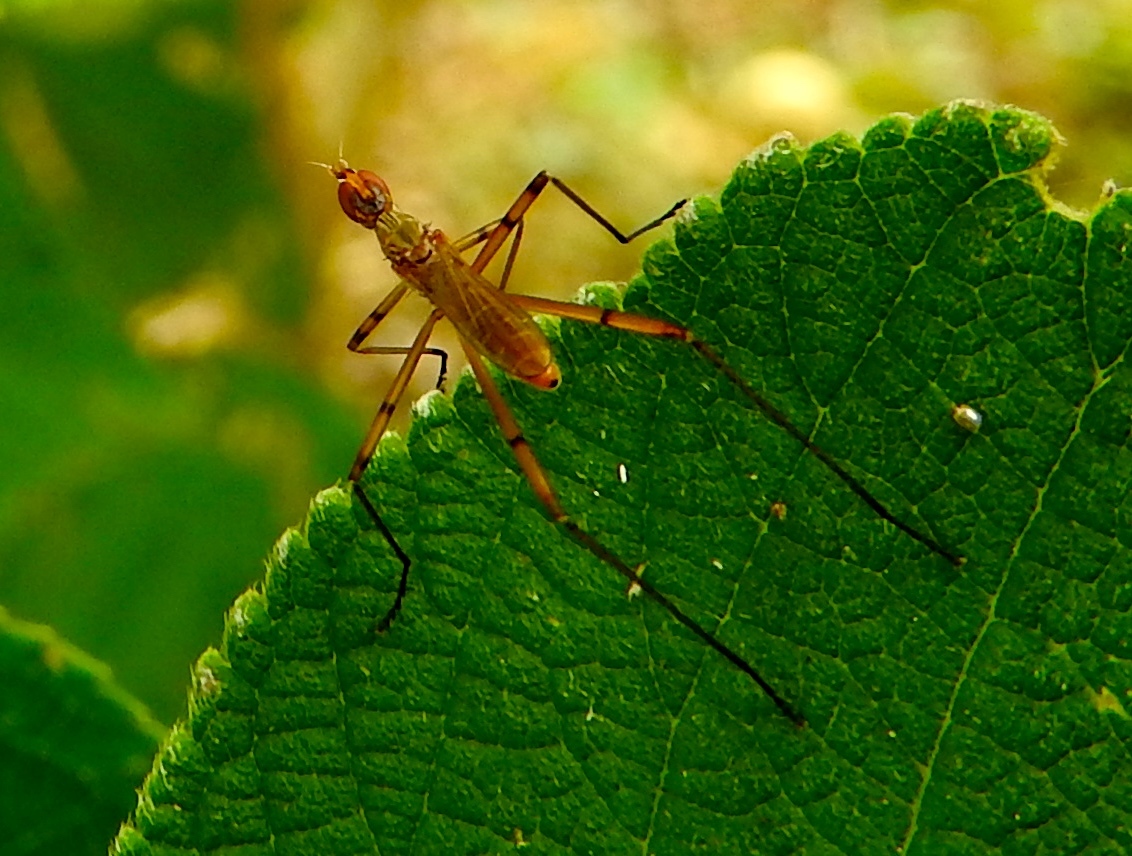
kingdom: Animalia
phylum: Arthropoda
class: Insecta
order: Diptera
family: Micropezidae
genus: Micropeza
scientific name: Micropeza
